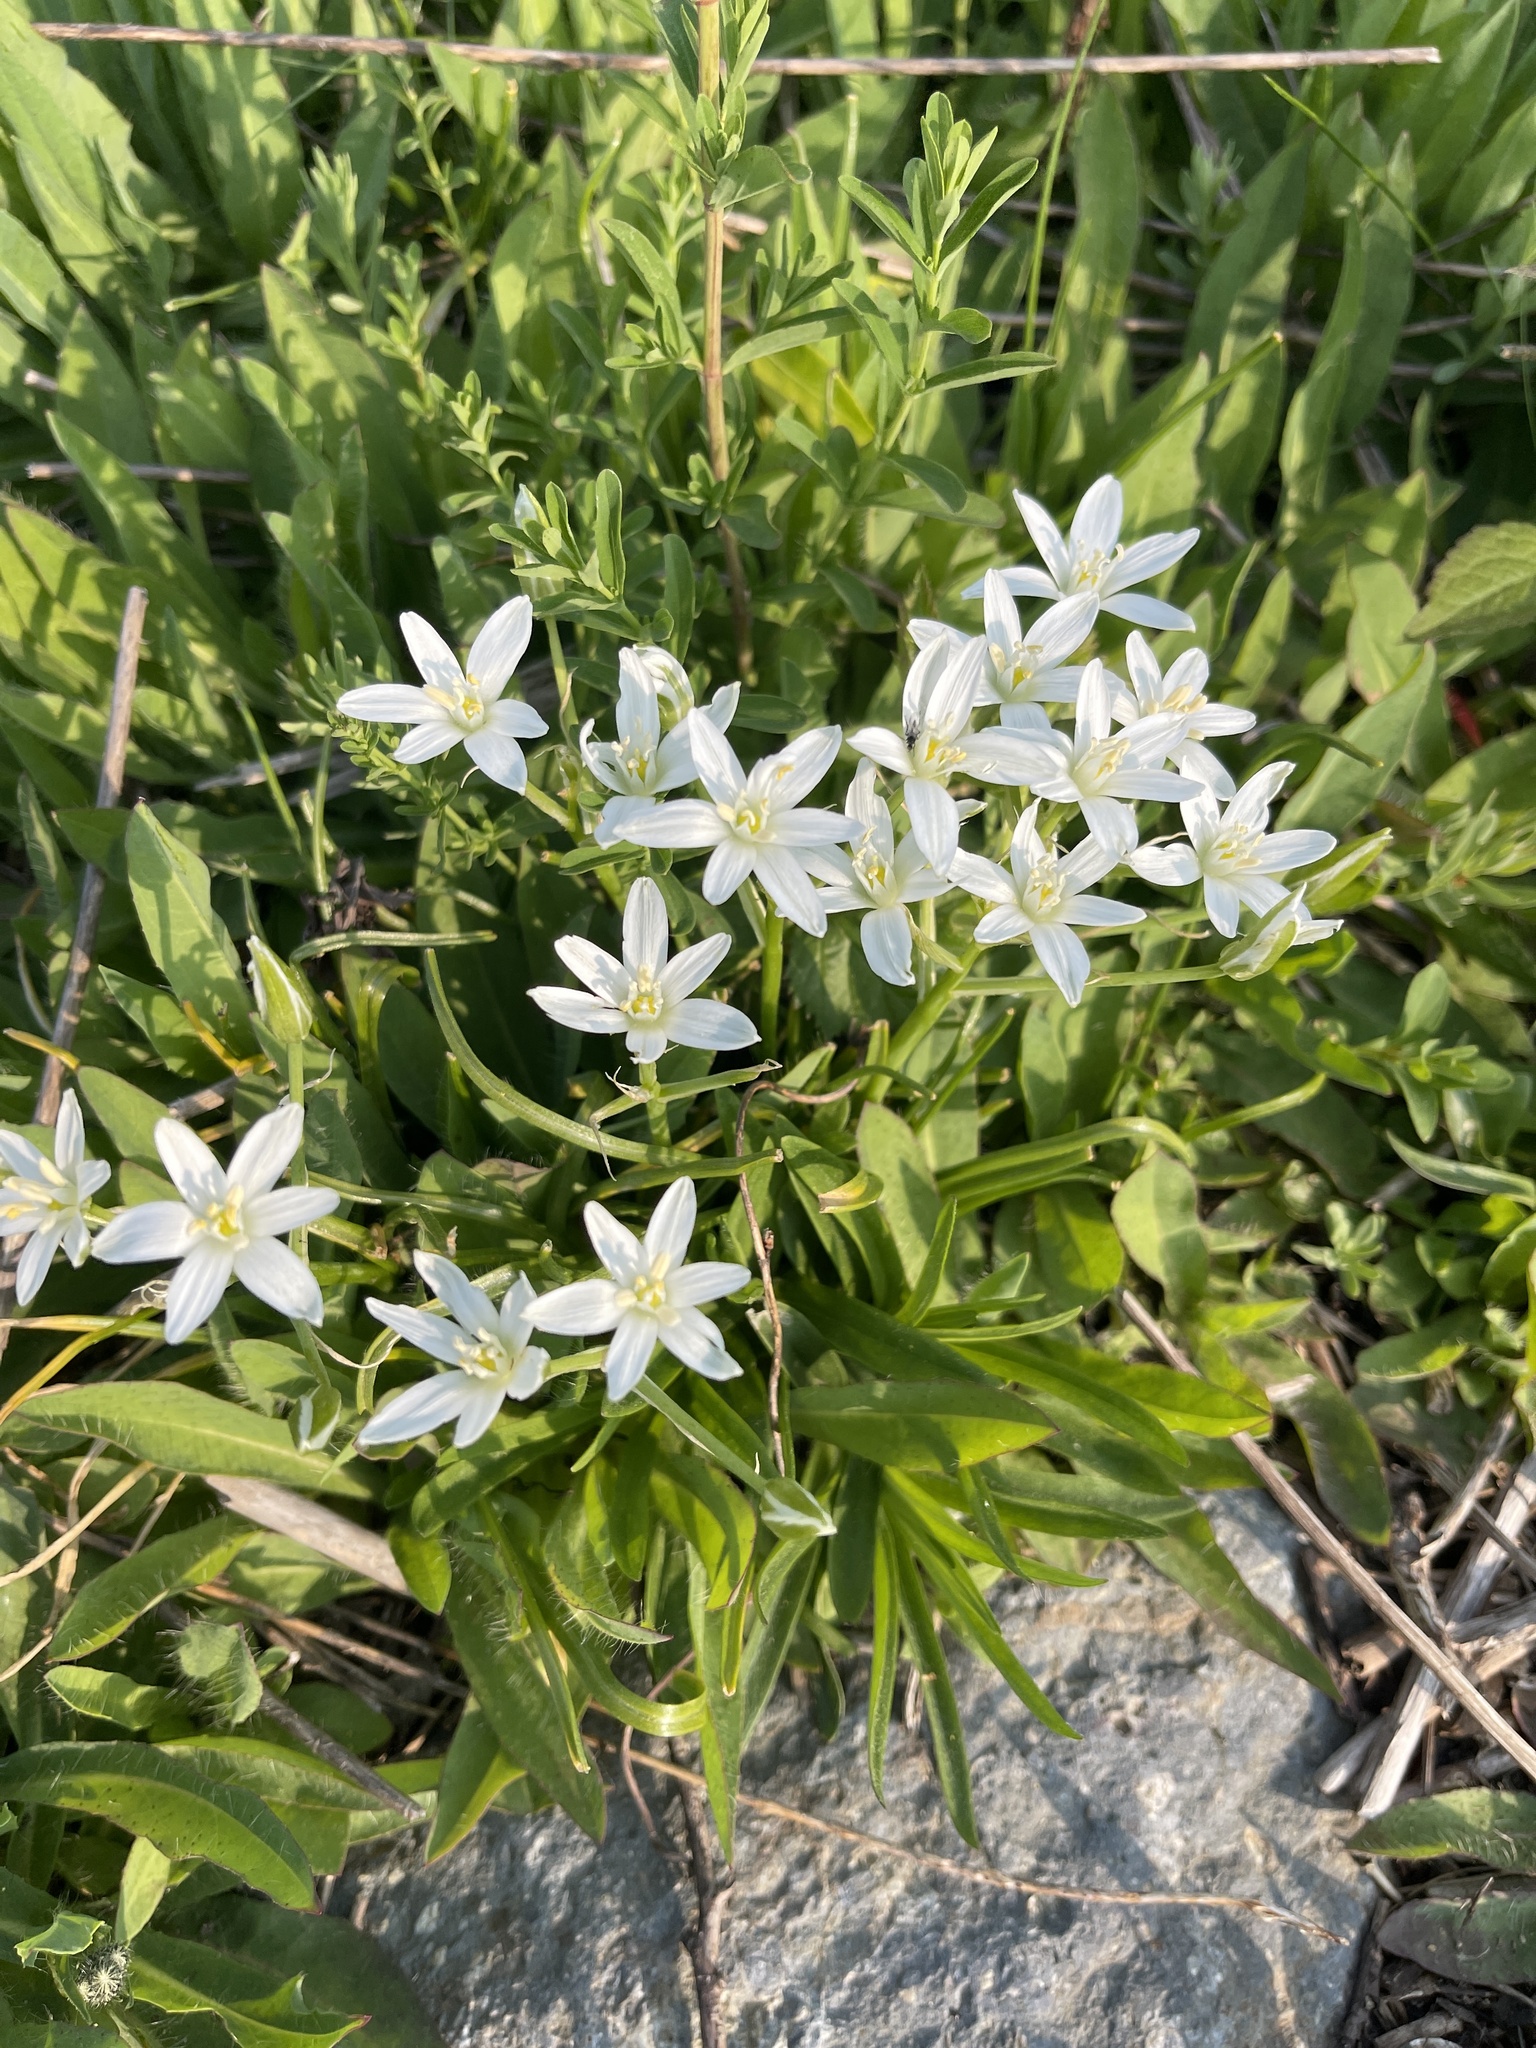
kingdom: Plantae
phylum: Tracheophyta
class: Liliopsida
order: Asparagales
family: Asparagaceae
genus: Ornithogalum
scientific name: Ornithogalum umbellatum
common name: Garden star-of-bethlehem
